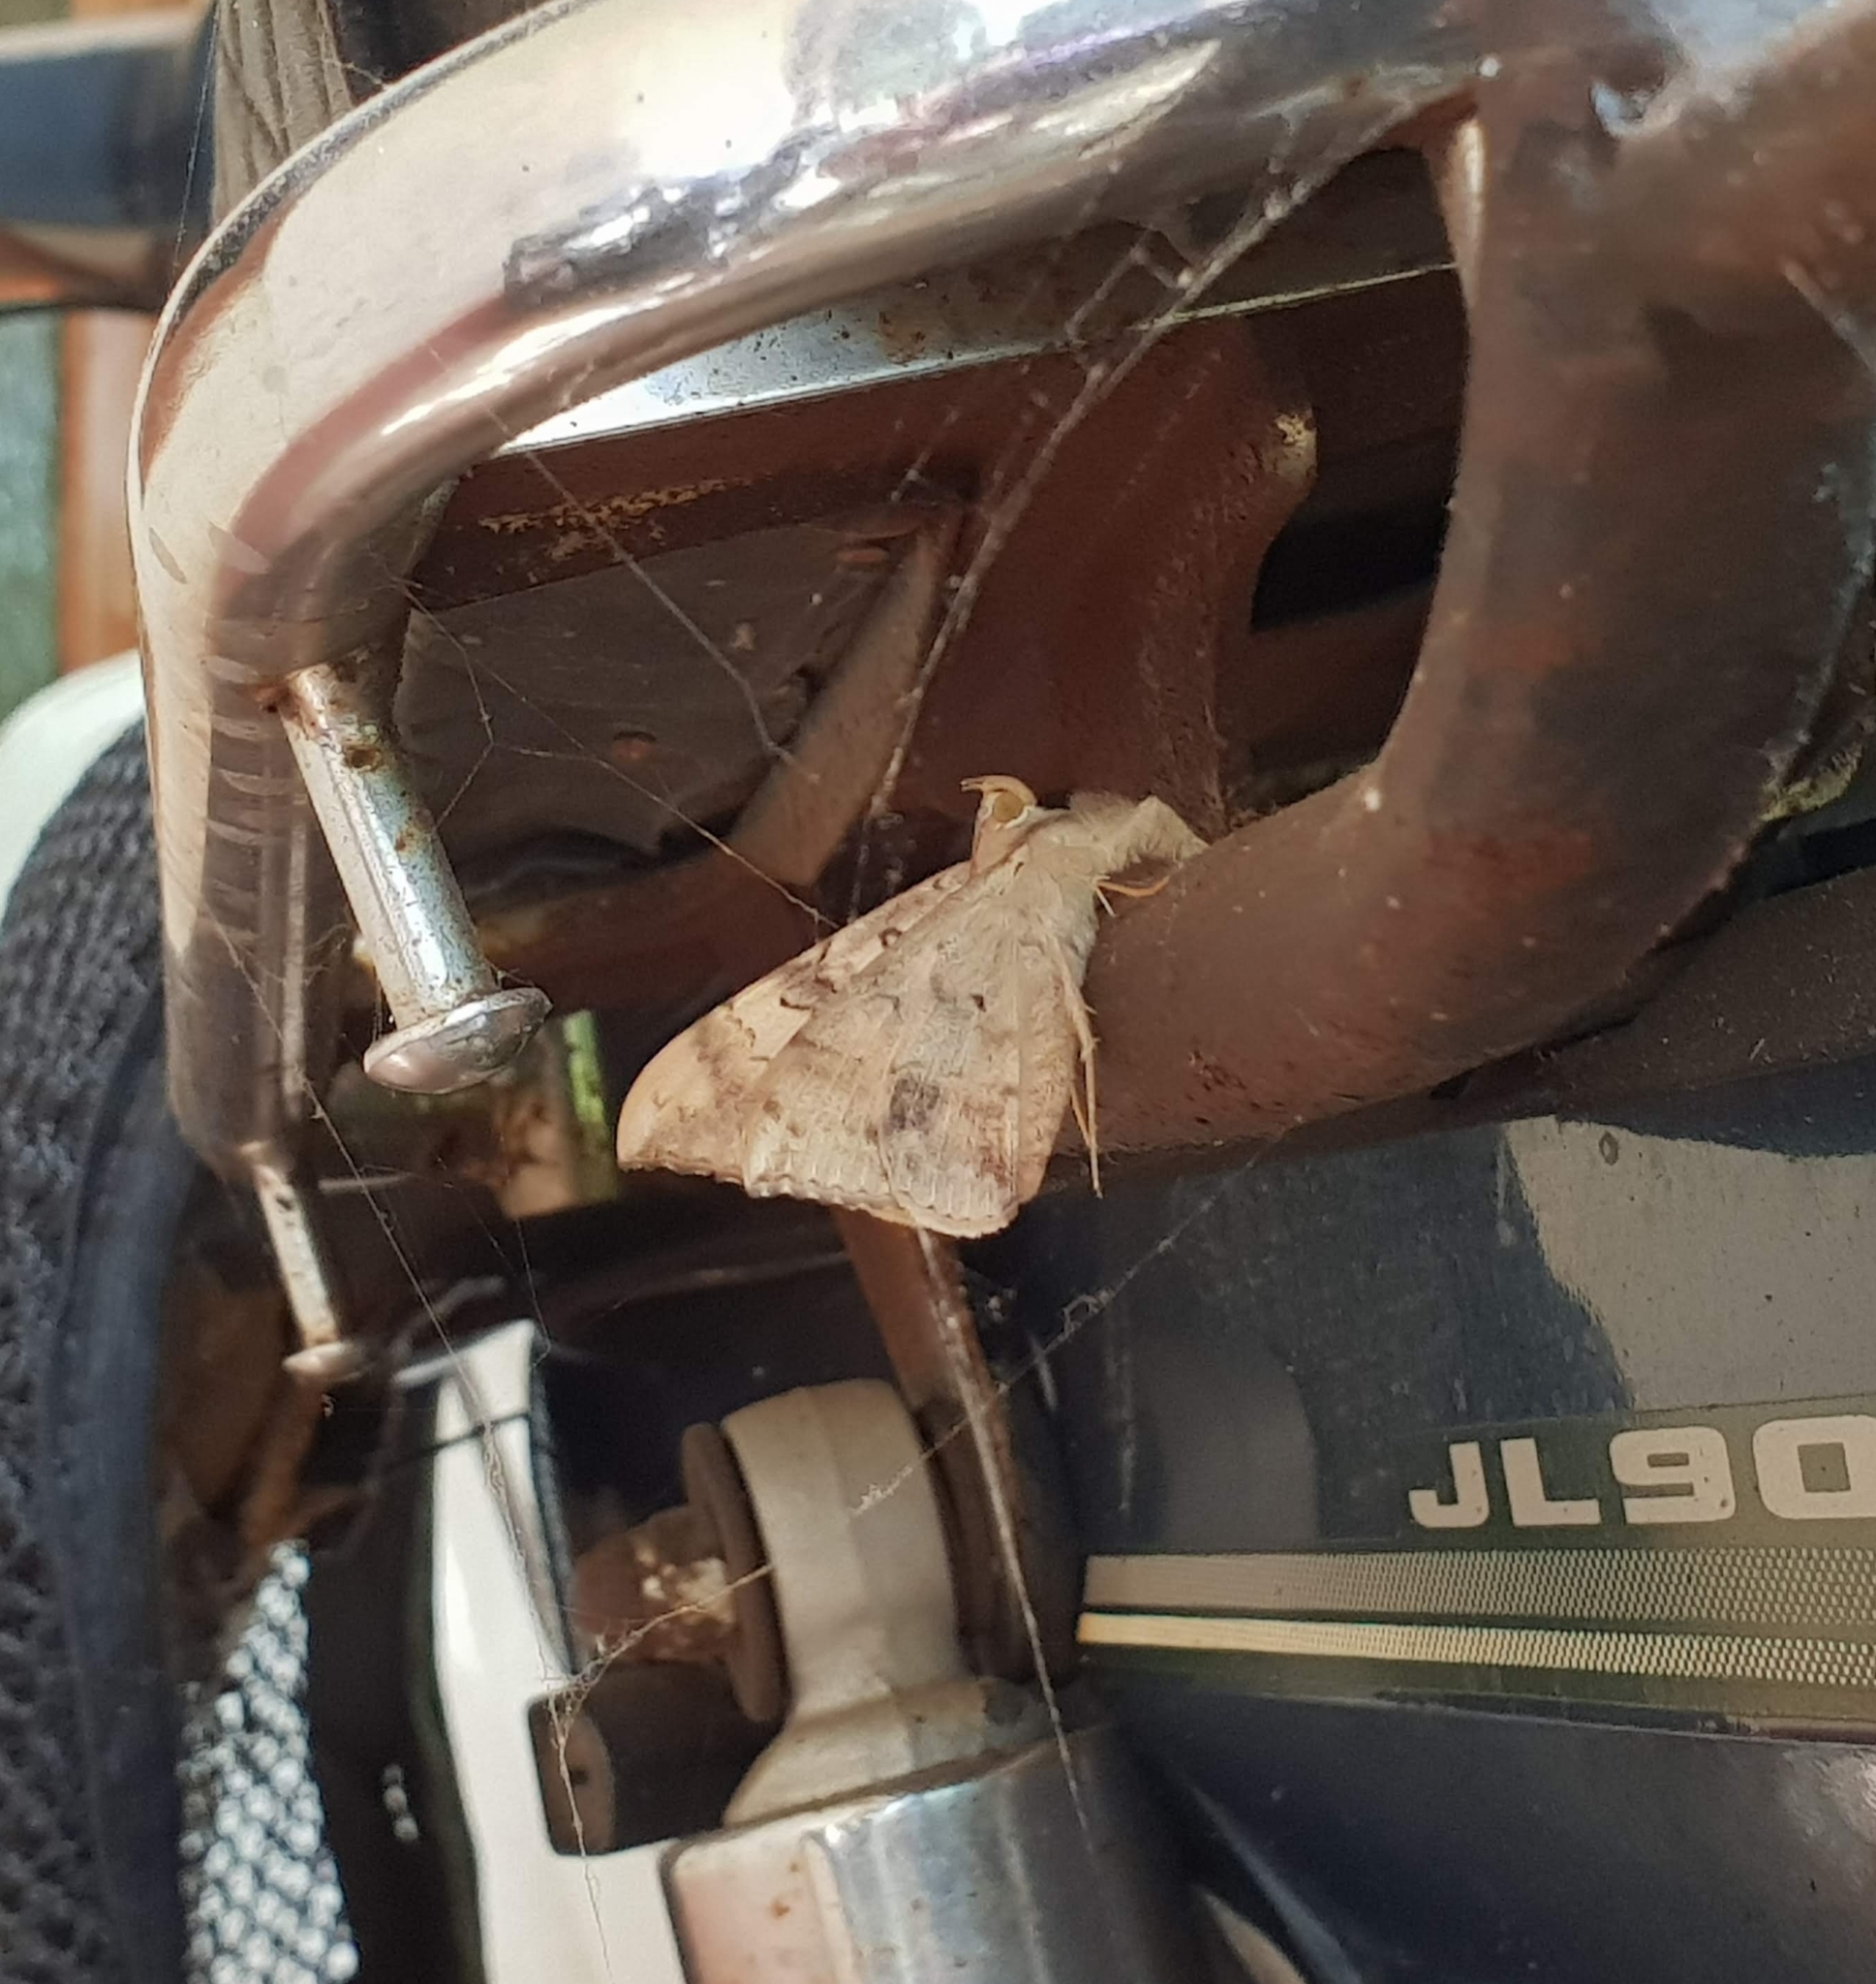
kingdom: Animalia
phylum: Arthropoda
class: Insecta
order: Lepidoptera
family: Erebidae
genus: Oxyodes
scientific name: Oxyodes scrobiculata
